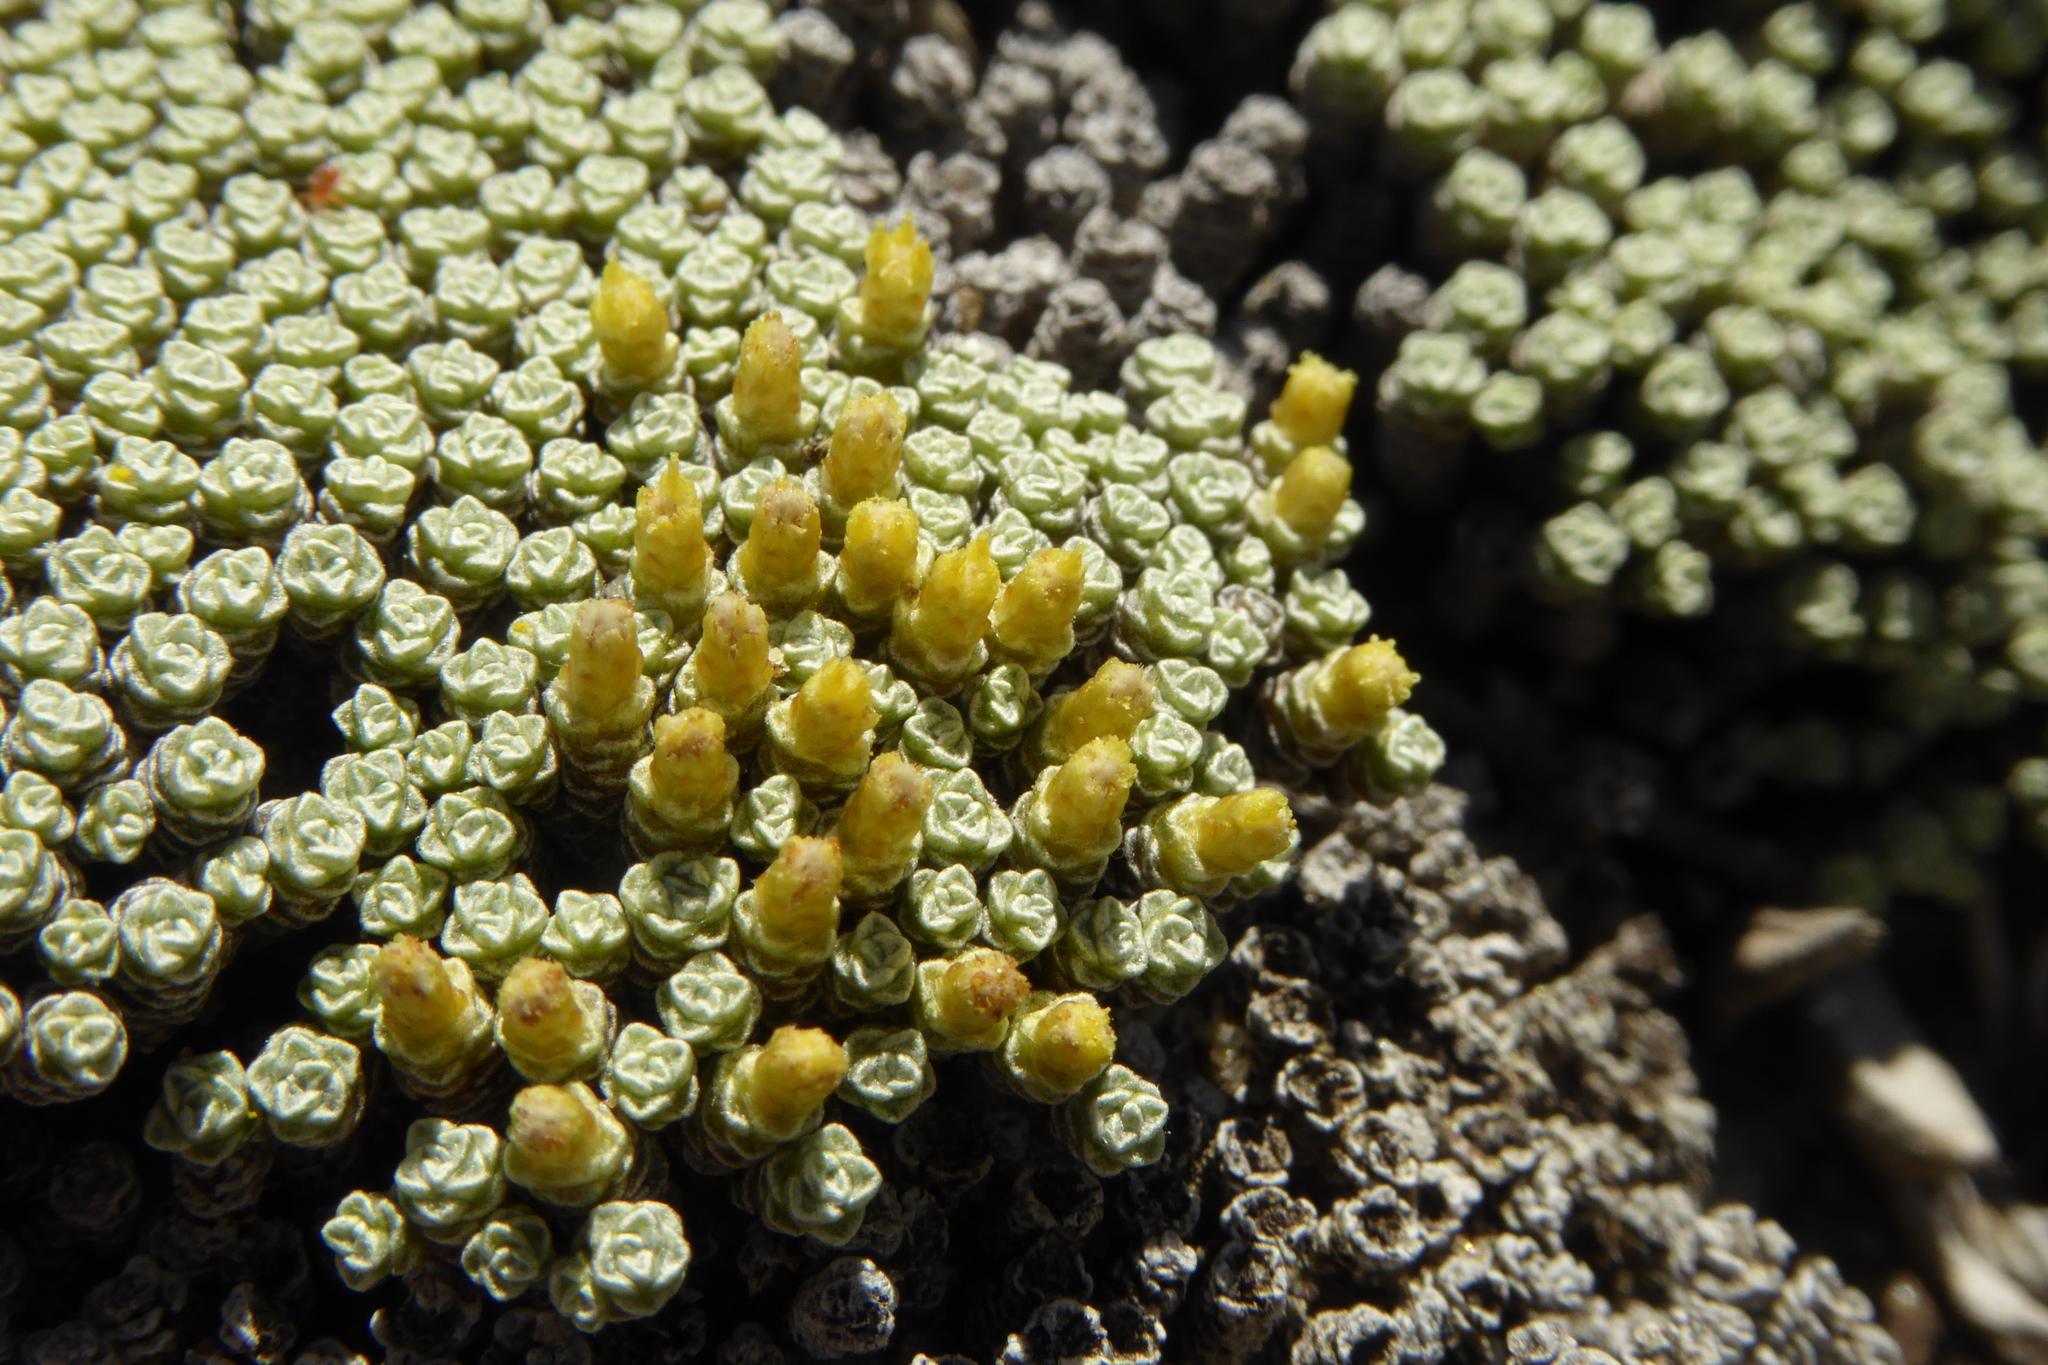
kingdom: Plantae
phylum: Tracheophyta
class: Magnoliopsida
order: Asterales
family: Asteraceae
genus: Raoulia
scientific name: Raoulia australis
